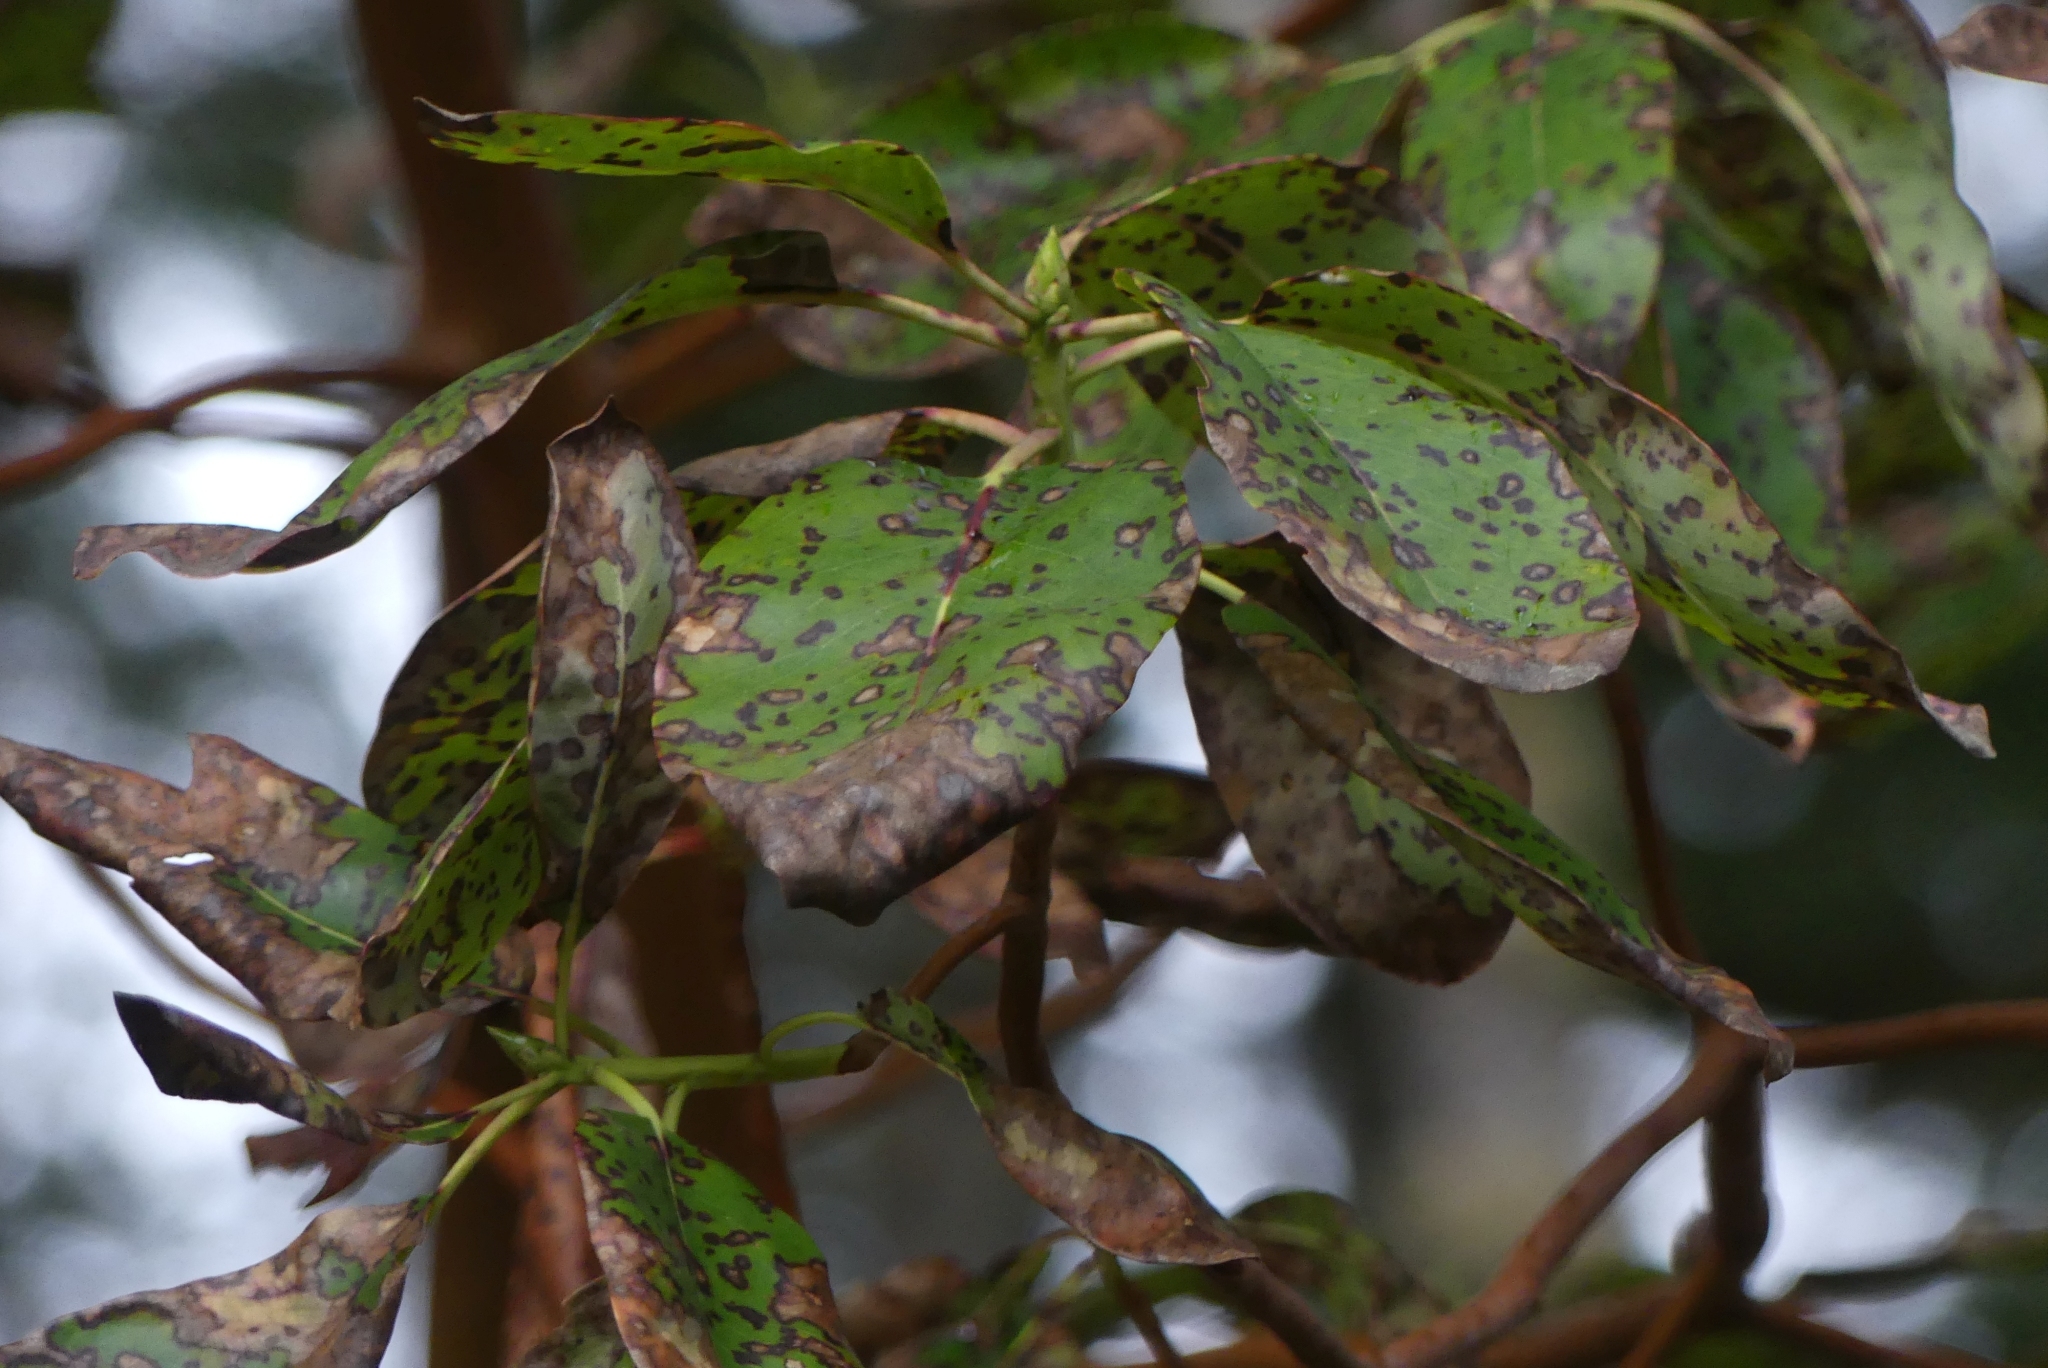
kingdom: Plantae
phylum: Tracheophyta
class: Magnoliopsida
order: Ericales
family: Ericaceae
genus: Arbutus
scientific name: Arbutus menziesii
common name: Pacific madrone
